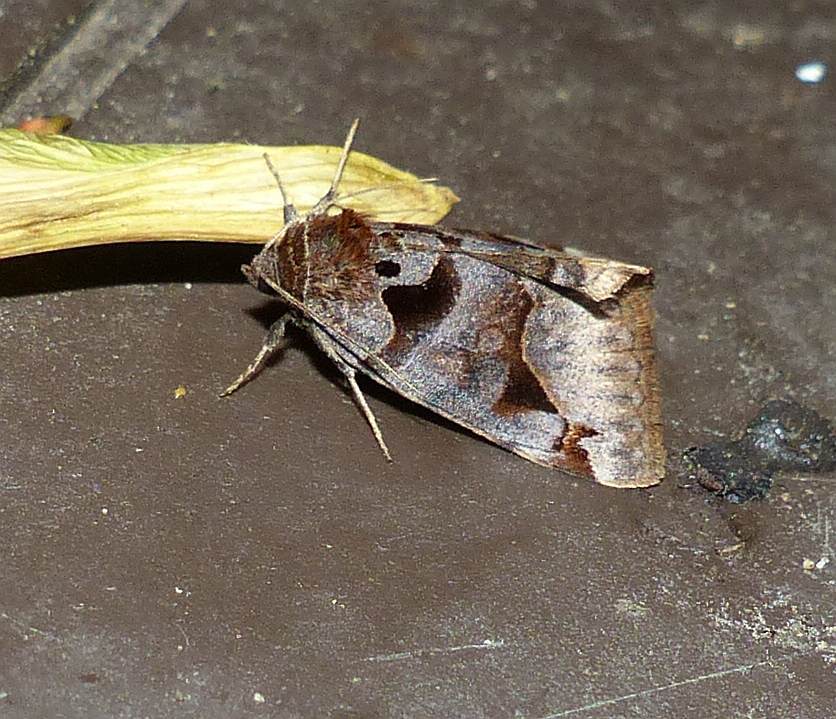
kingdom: Animalia
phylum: Arthropoda
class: Insecta
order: Lepidoptera
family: Erebidae
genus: Euclidia
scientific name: Euclidia cuspidea
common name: Toothed somberwing
